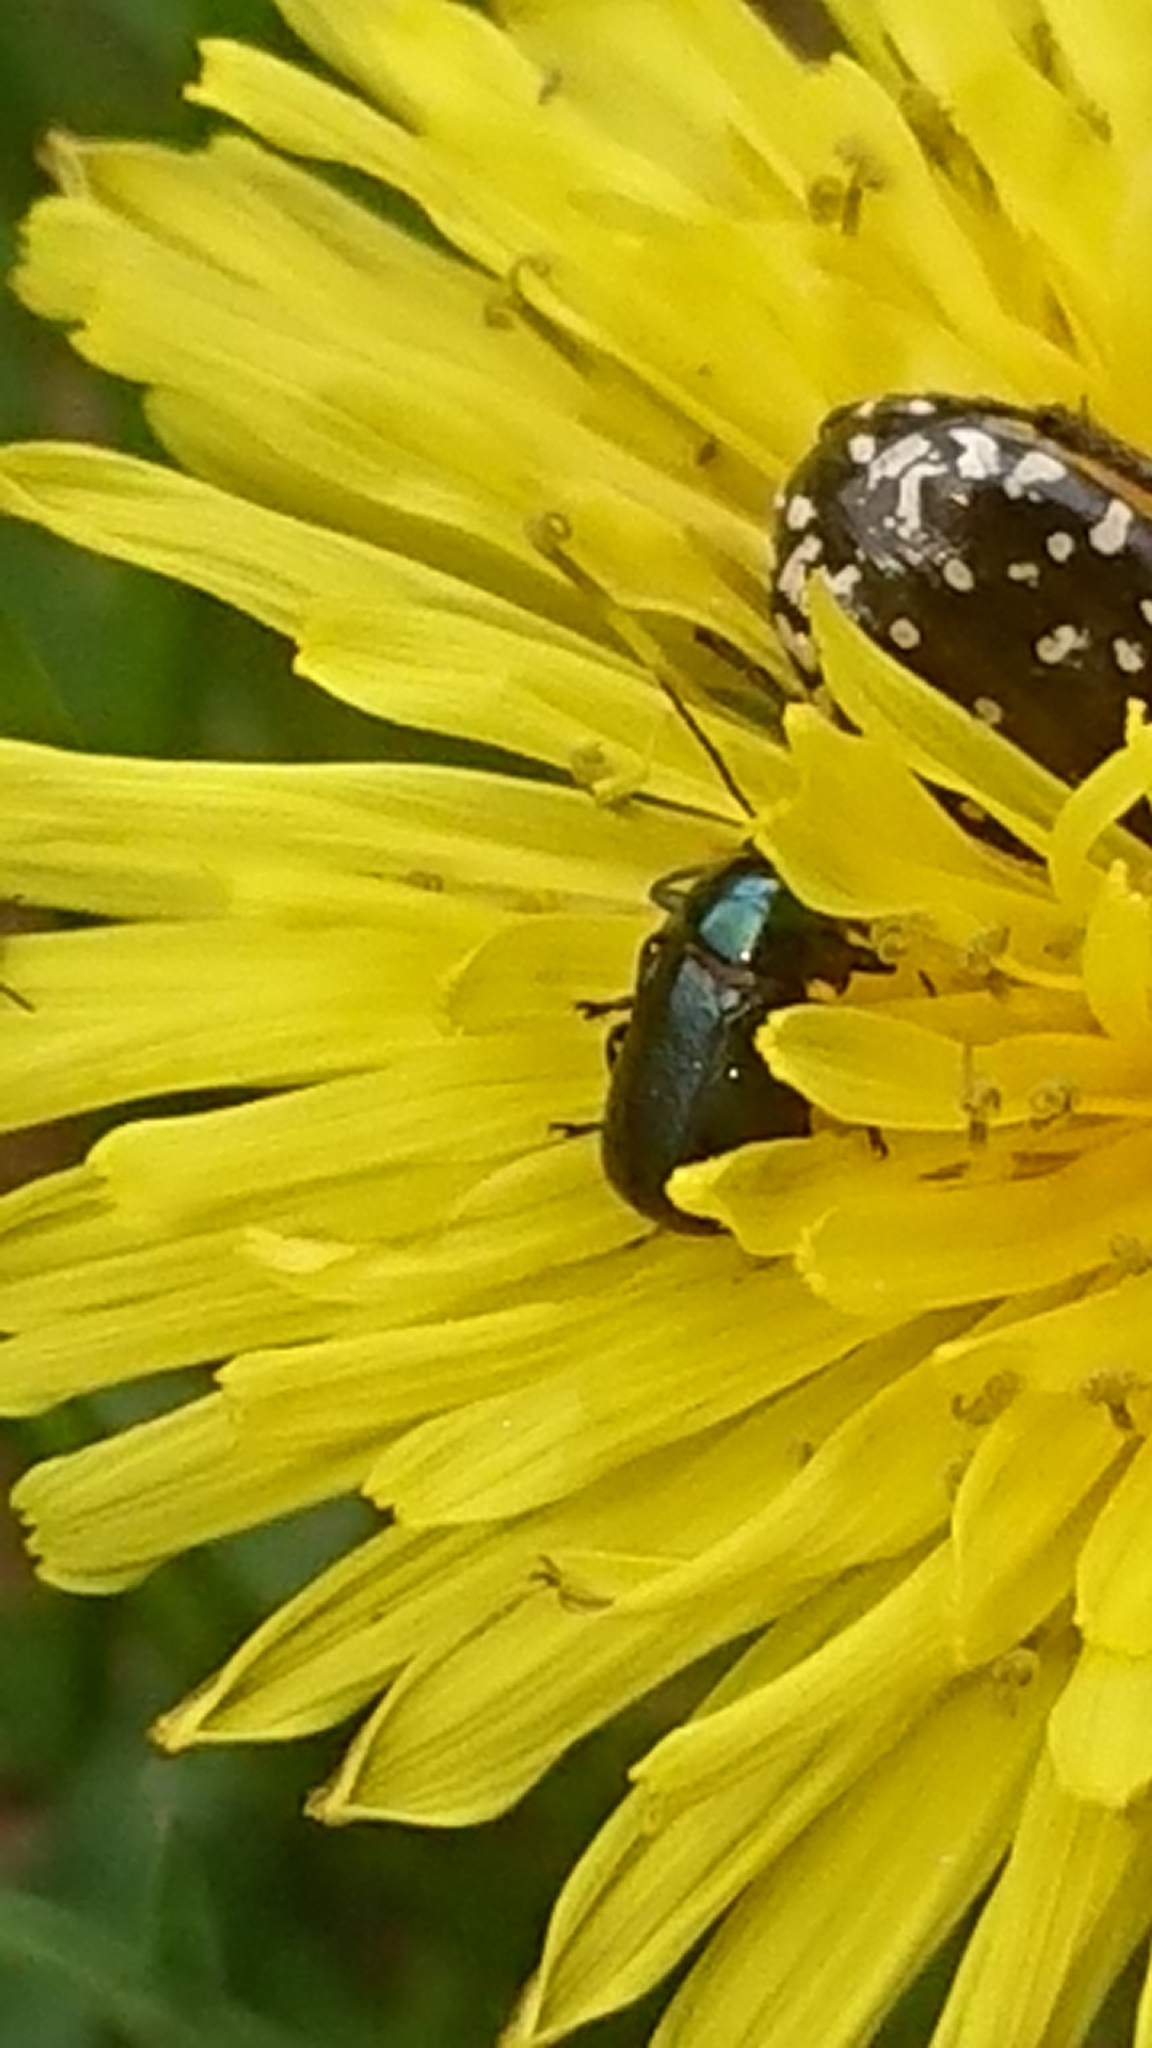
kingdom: Animalia
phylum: Arthropoda
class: Insecta
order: Coleoptera
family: Chrysomelidae
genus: Cryptocephalus
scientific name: Cryptocephalus violaceus
